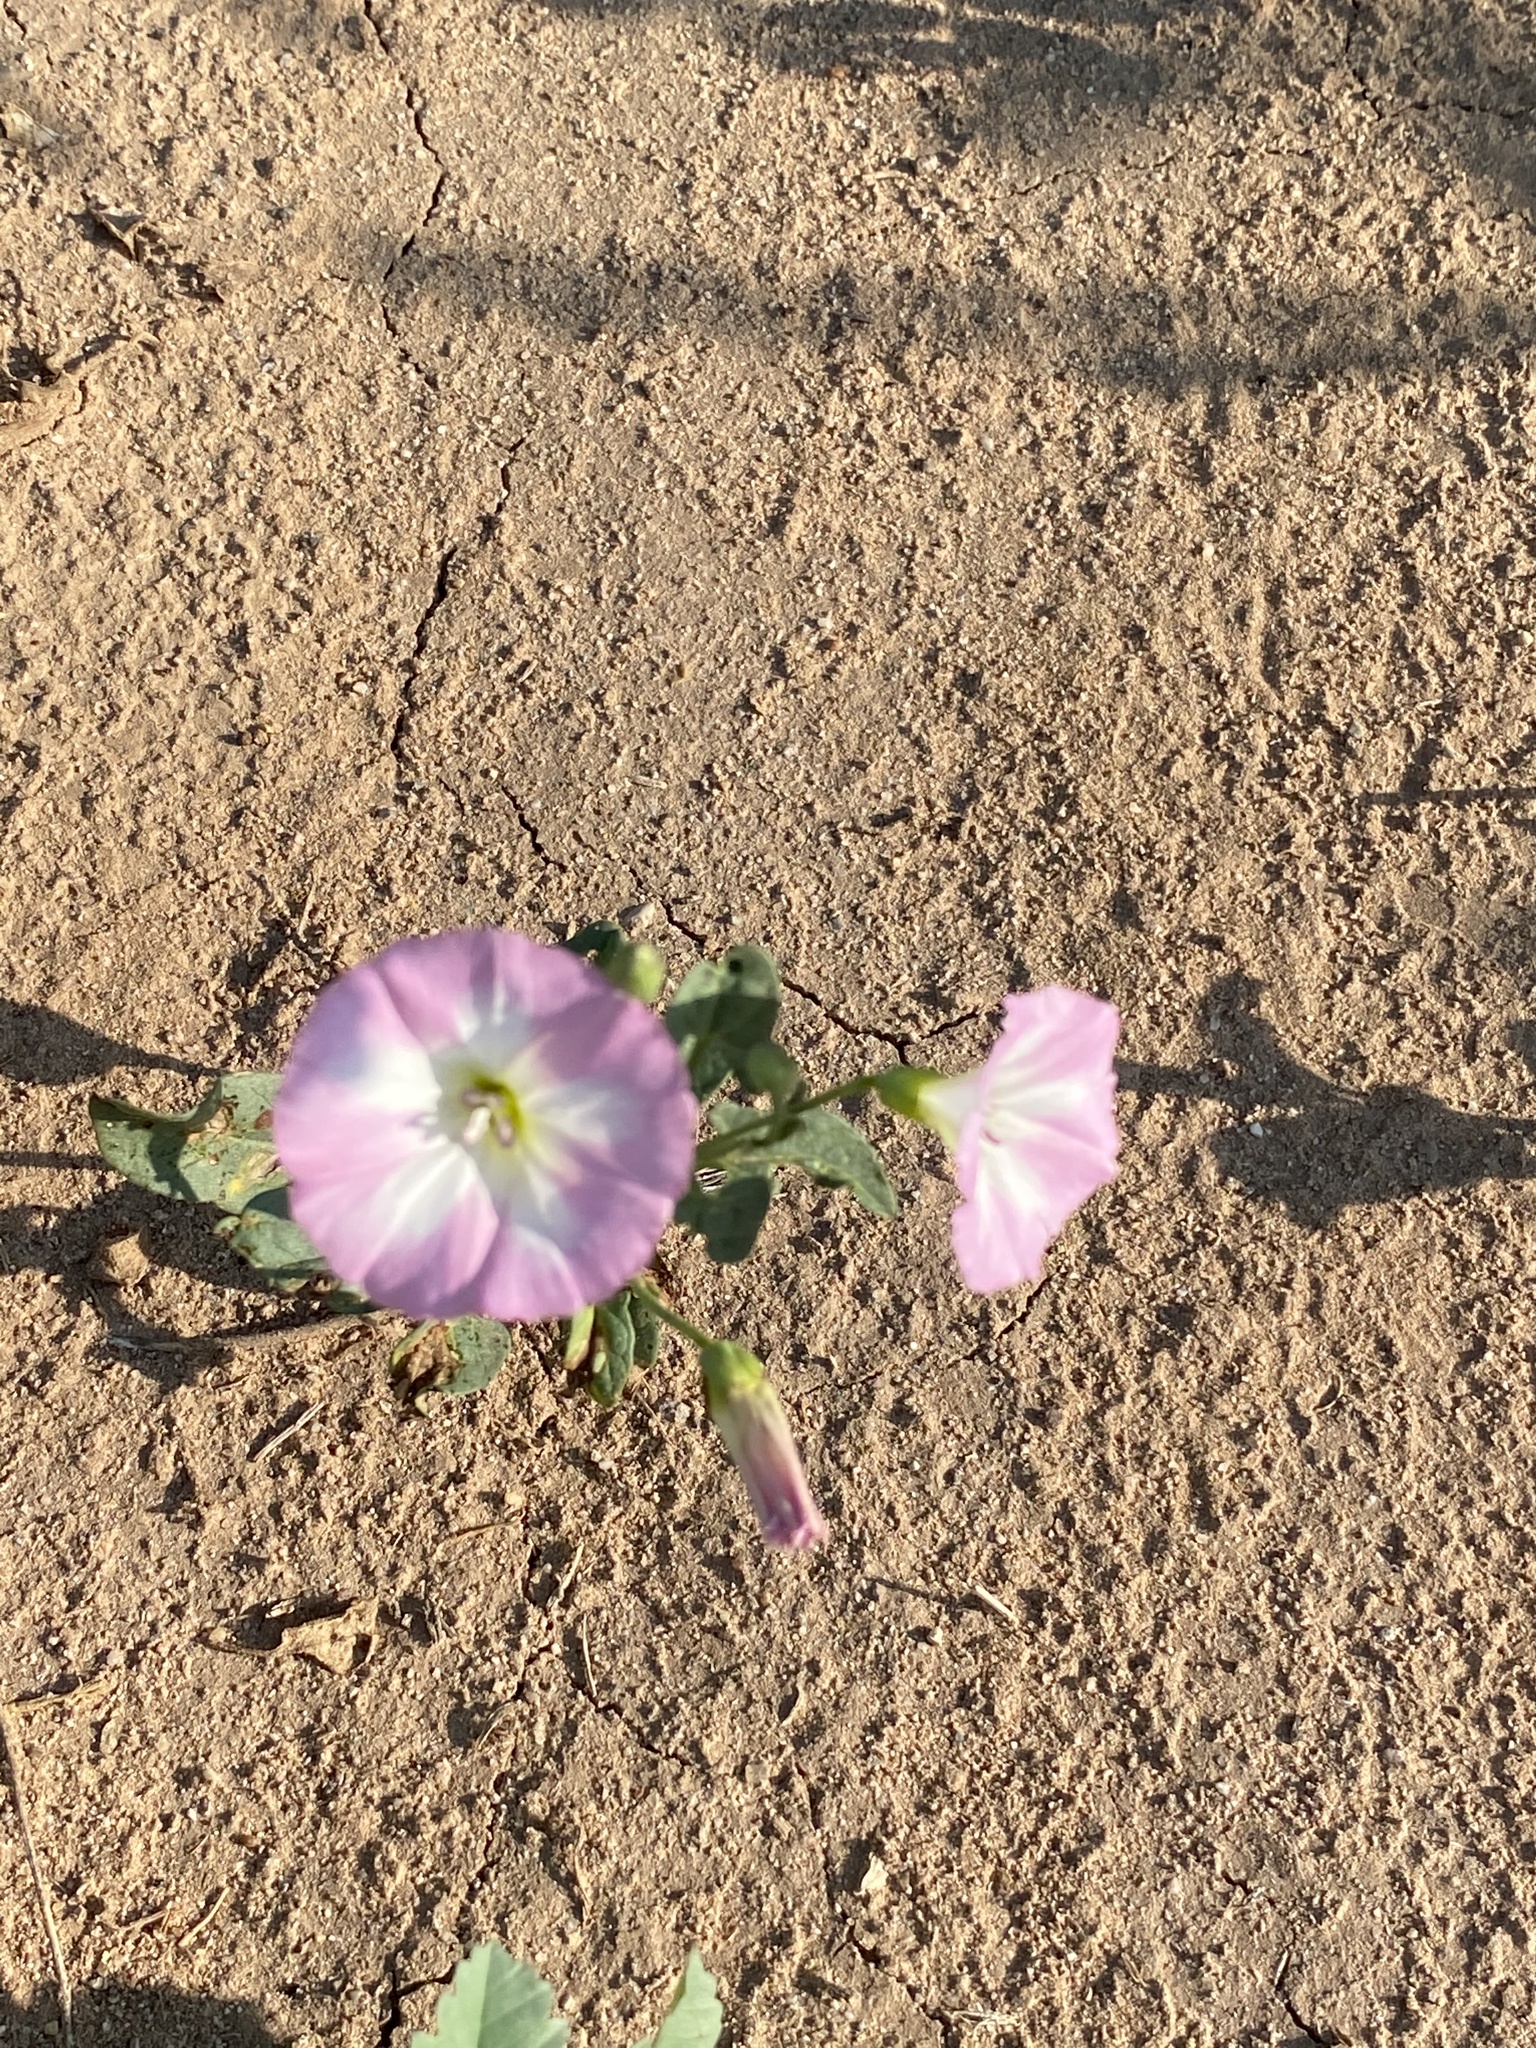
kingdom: Plantae
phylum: Tracheophyta
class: Magnoliopsida
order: Solanales
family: Convolvulaceae
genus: Convolvulus
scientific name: Convolvulus arvensis
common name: Field bindweed
